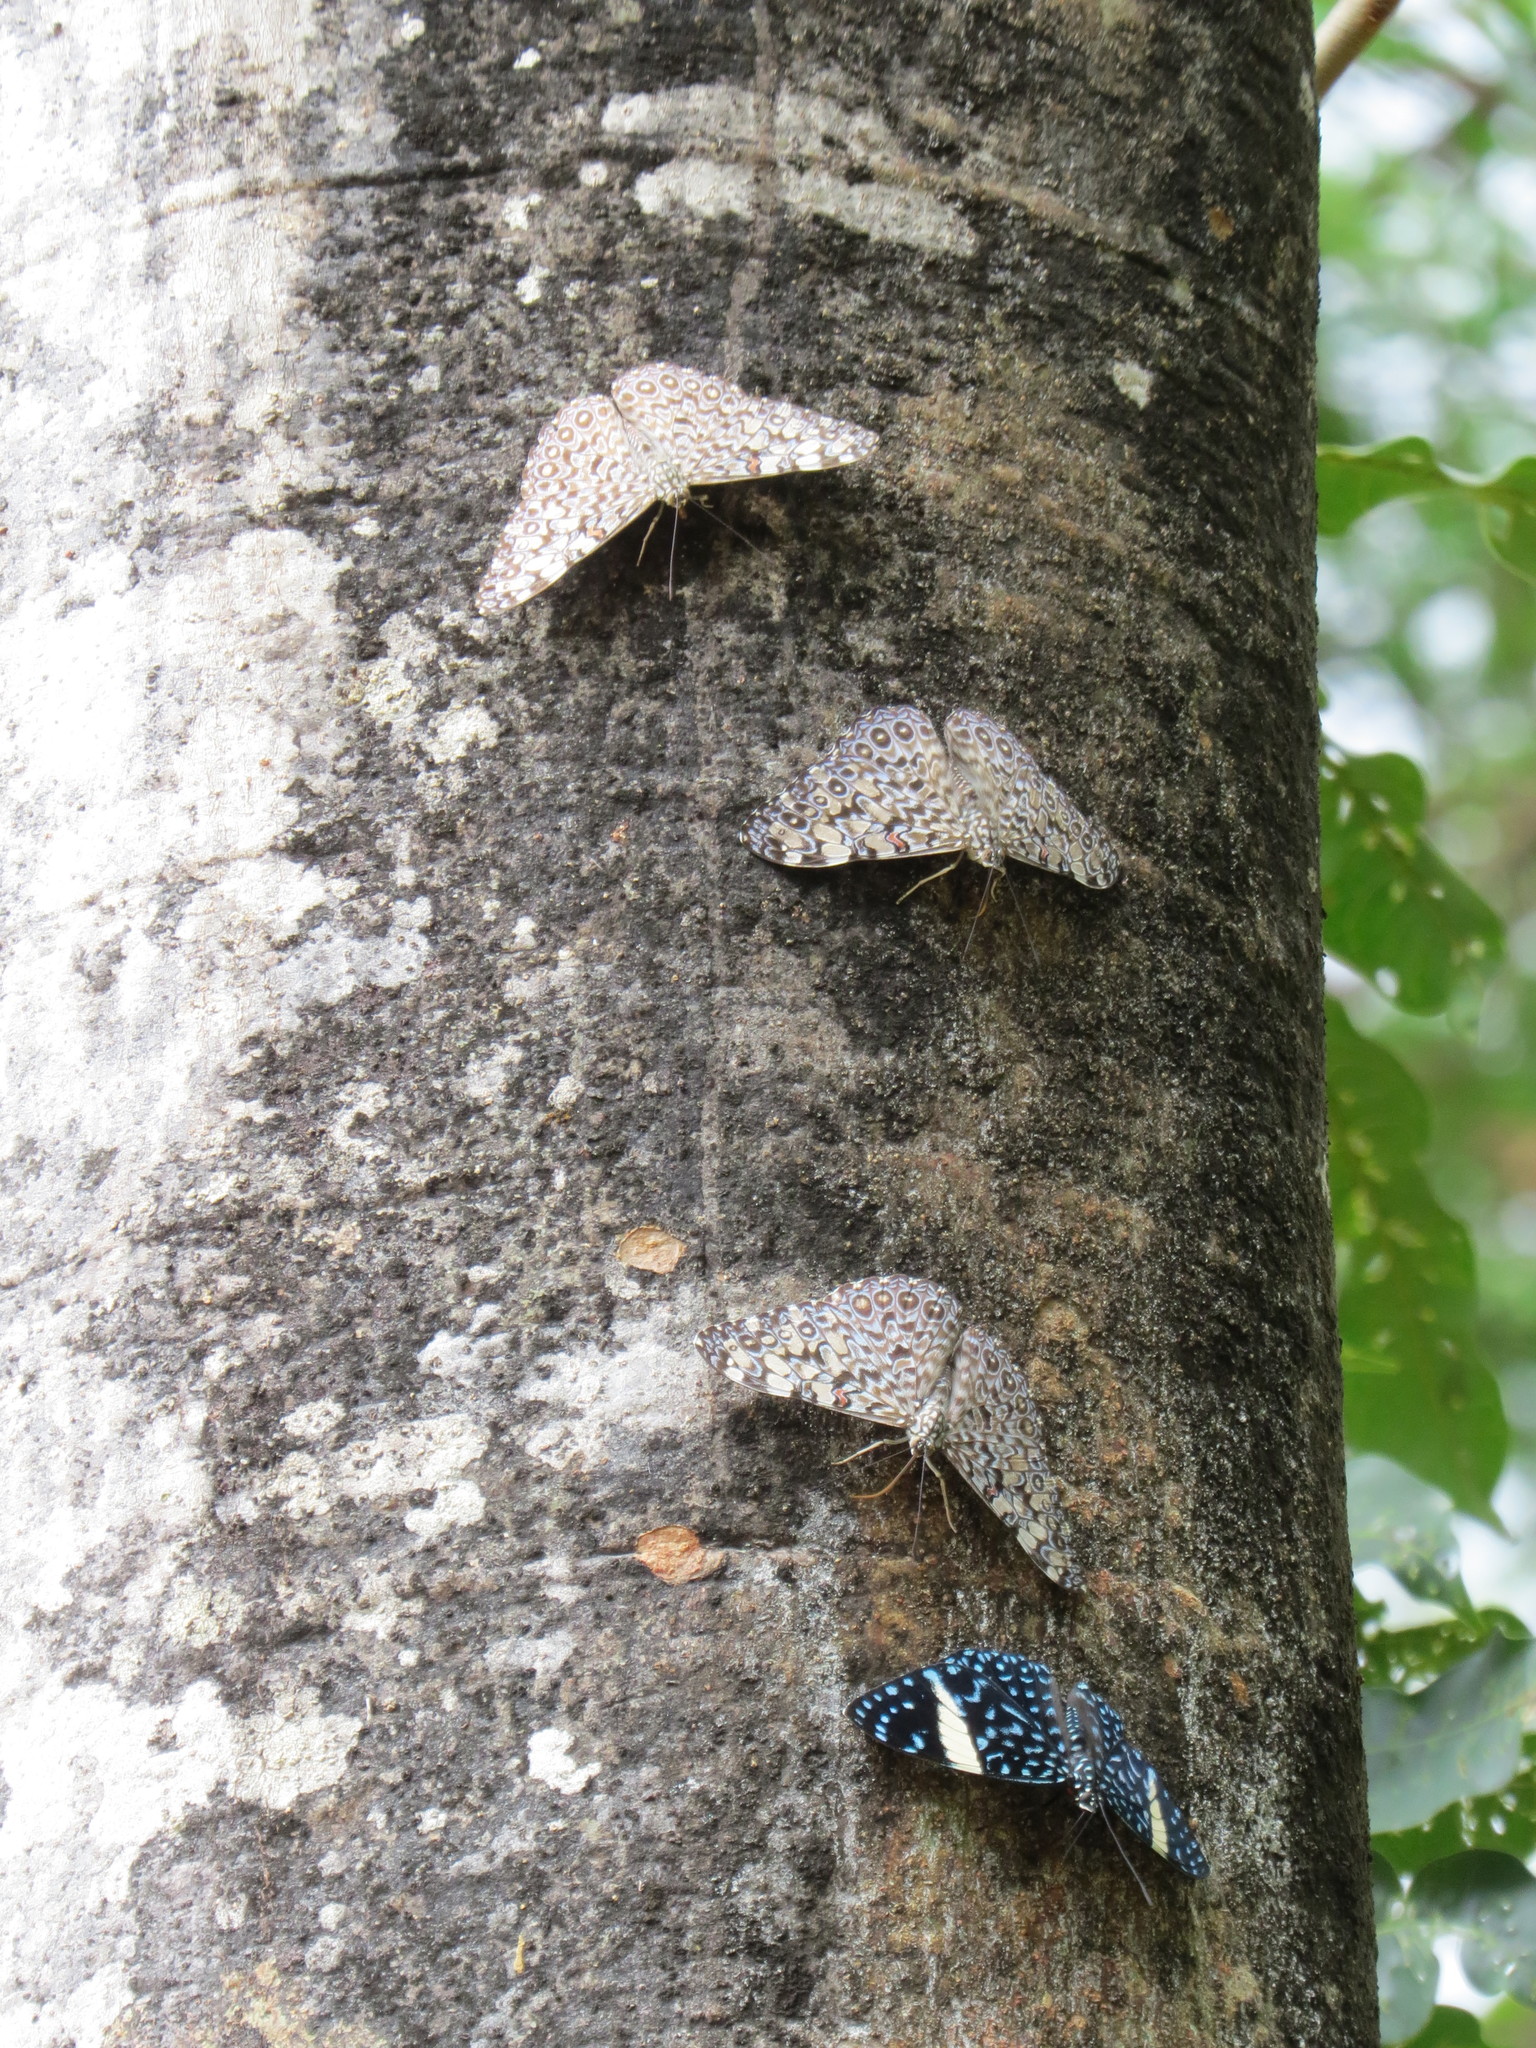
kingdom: Animalia
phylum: Arthropoda
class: Insecta
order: Lepidoptera
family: Nymphalidae
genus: Hamadryas
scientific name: Hamadryas feronia
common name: Variable cracker
